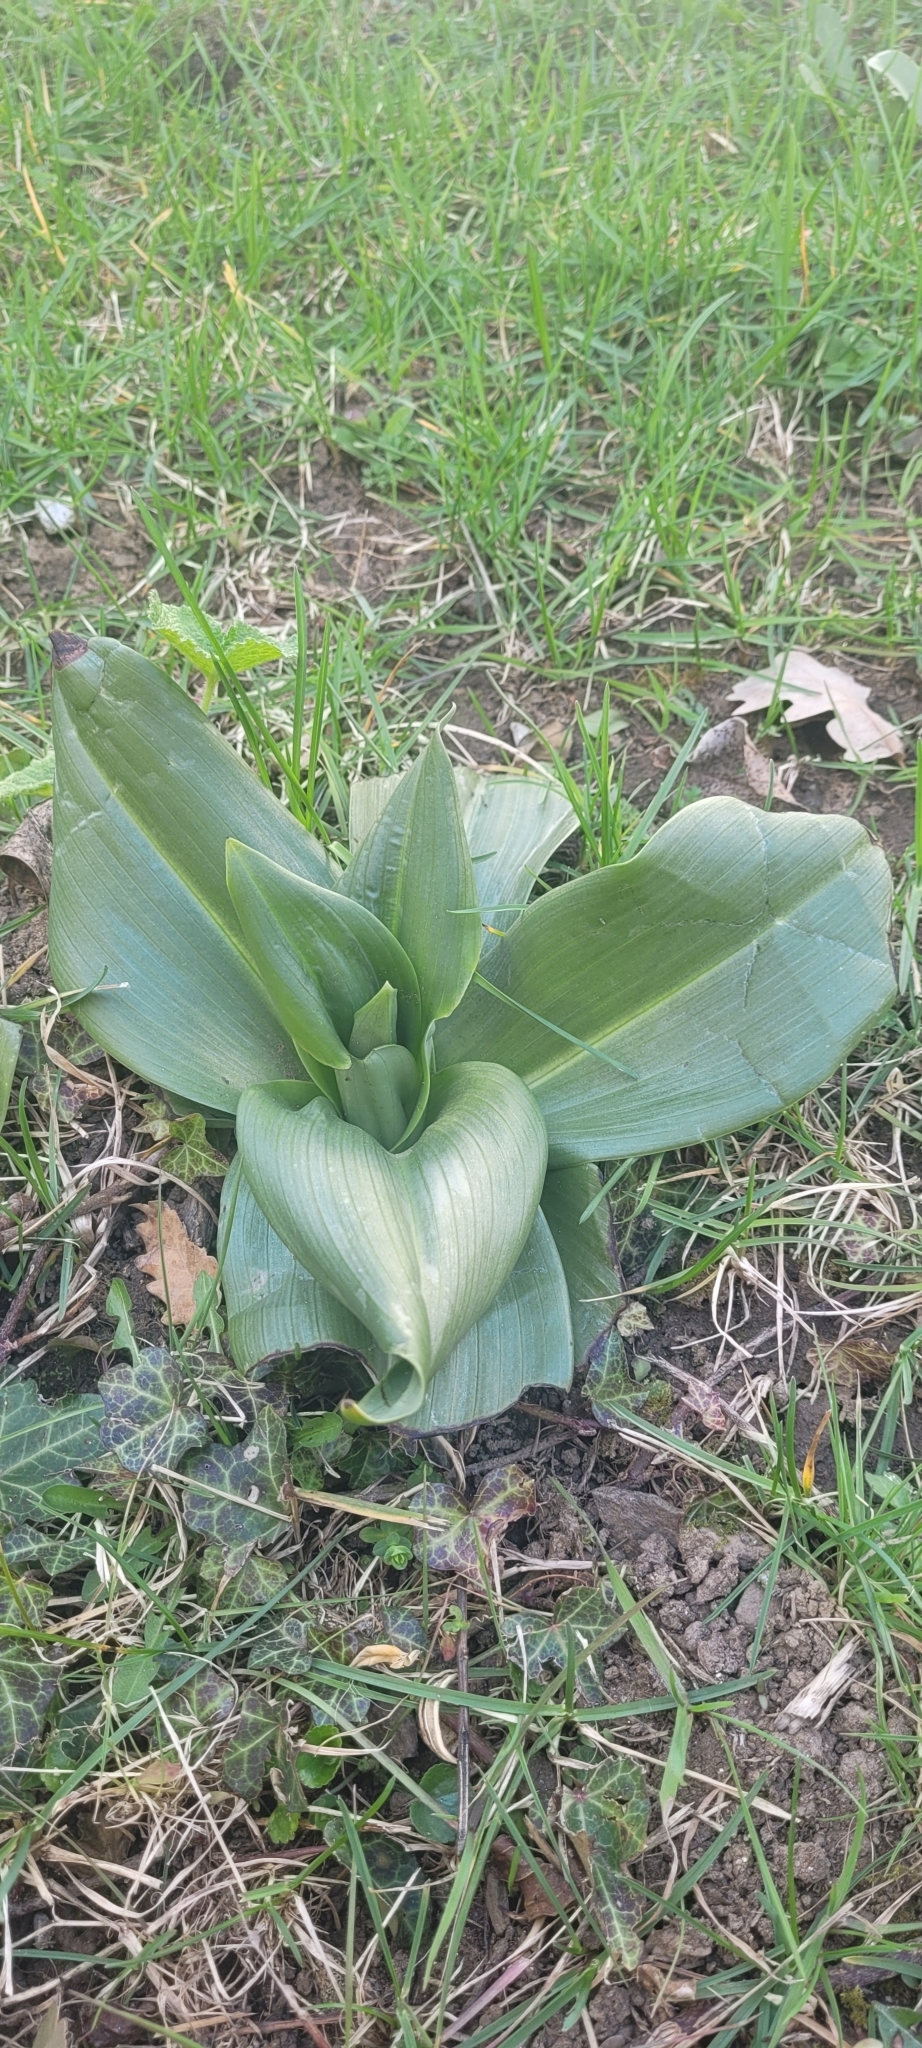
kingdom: Plantae
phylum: Tracheophyta
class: Liliopsida
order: Asparagales
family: Orchidaceae
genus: Himantoglossum
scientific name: Himantoglossum hircinum
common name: Lizard orchid
